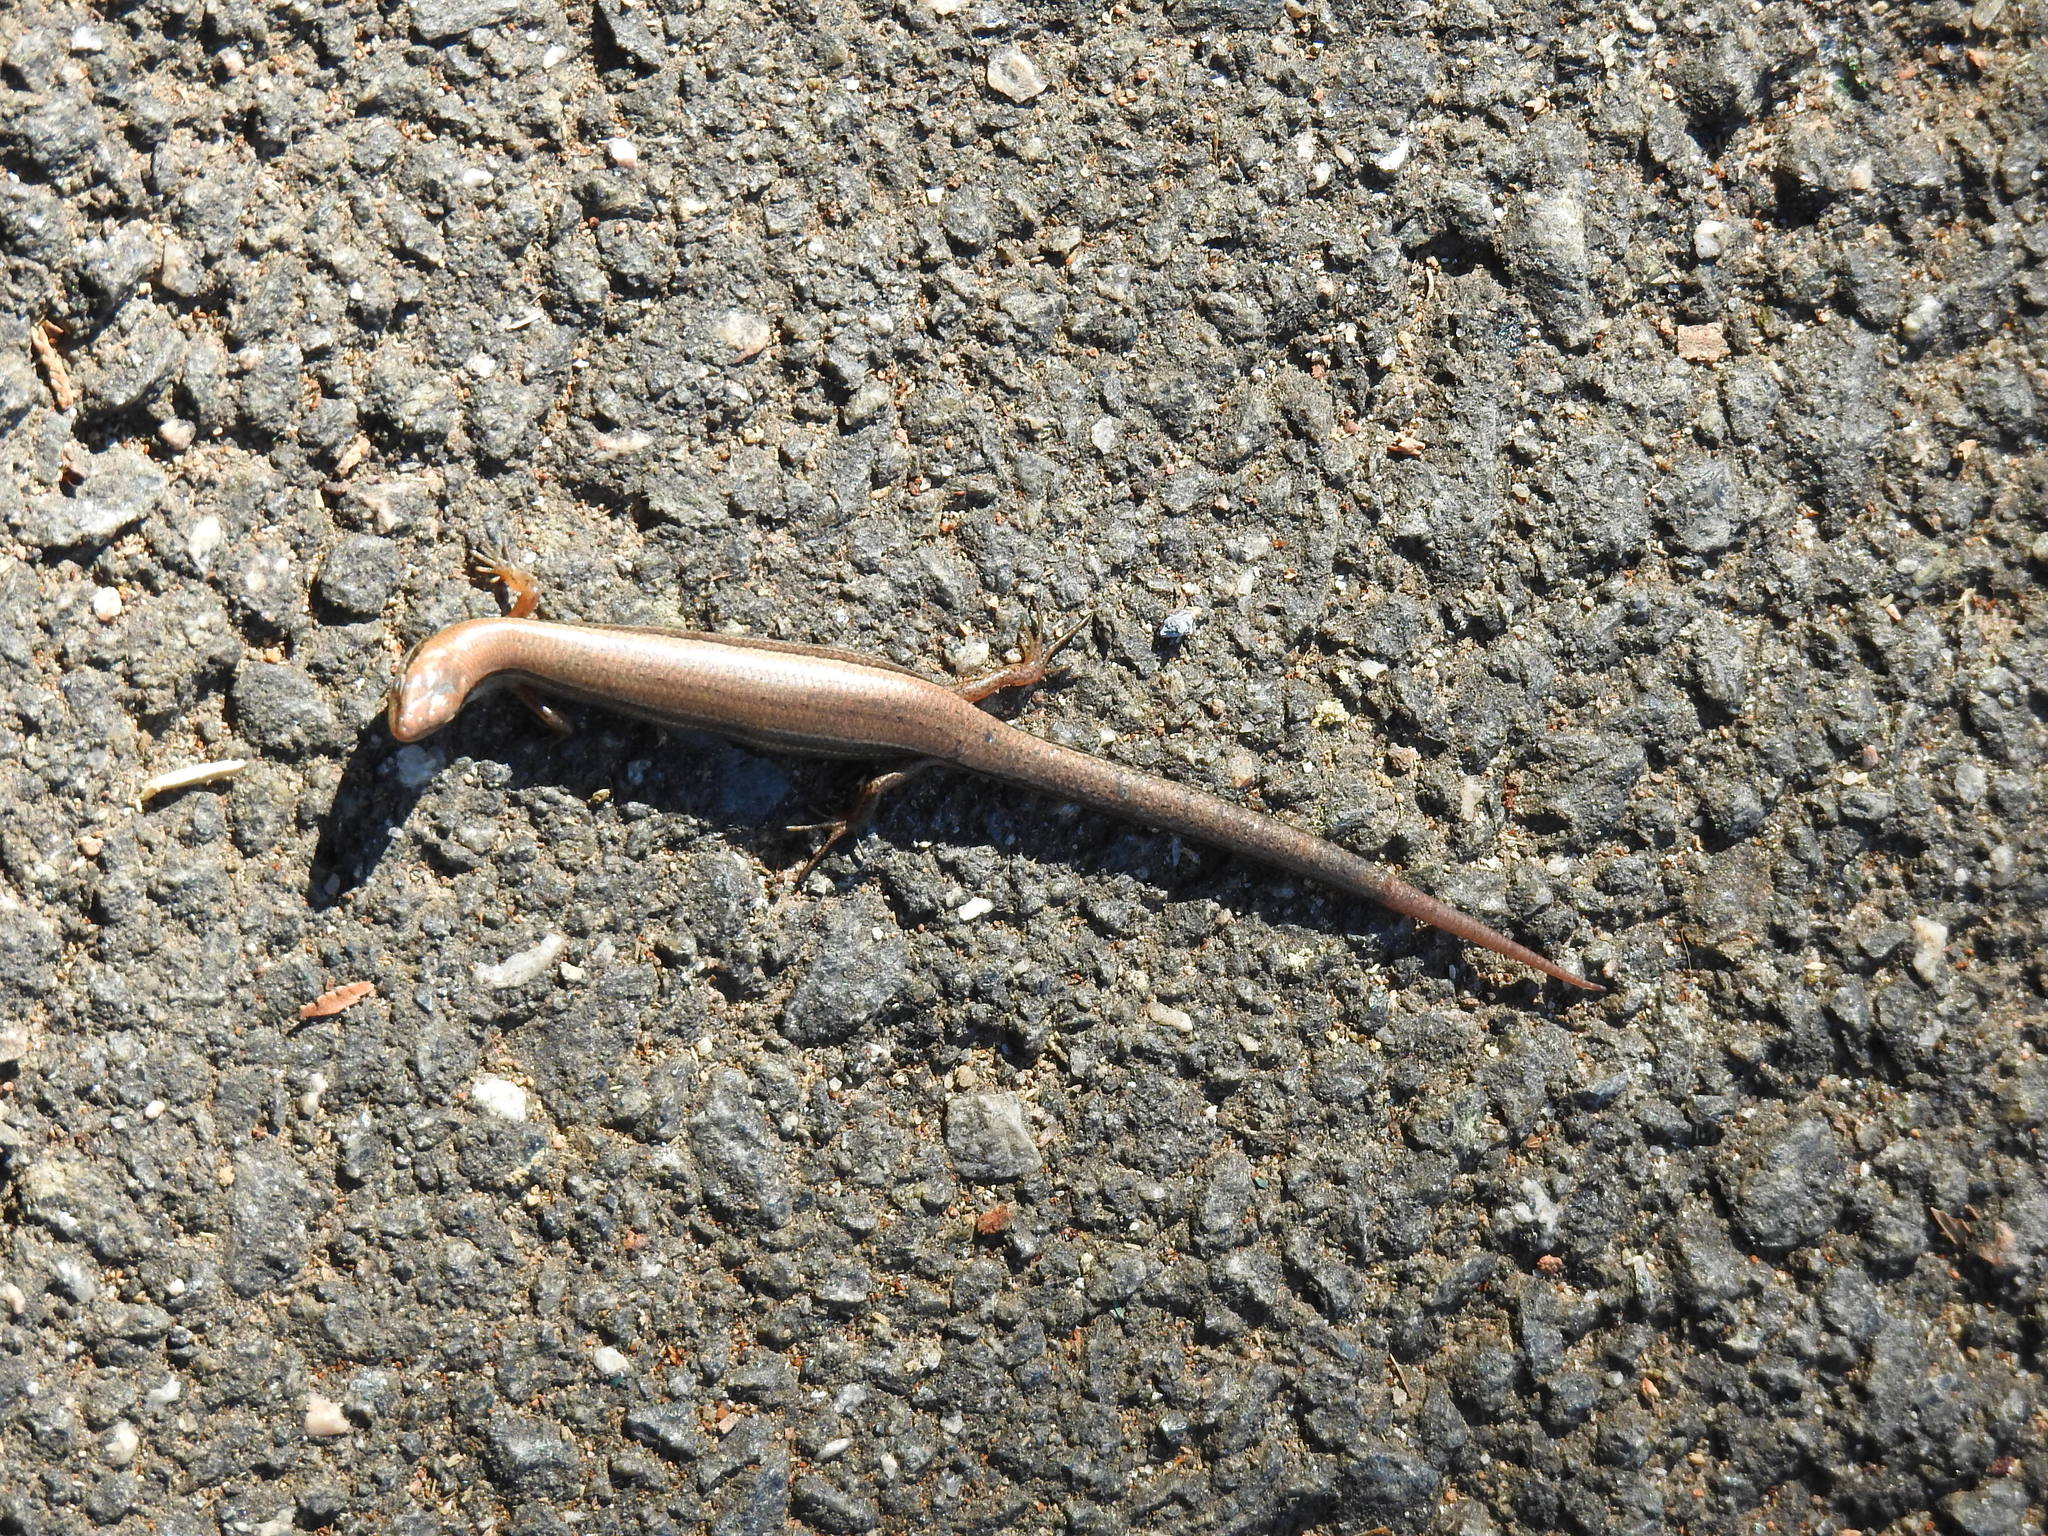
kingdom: Animalia
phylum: Chordata
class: Squamata
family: Scincidae
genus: Scincella
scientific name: Scincella lateralis
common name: Ground skink
